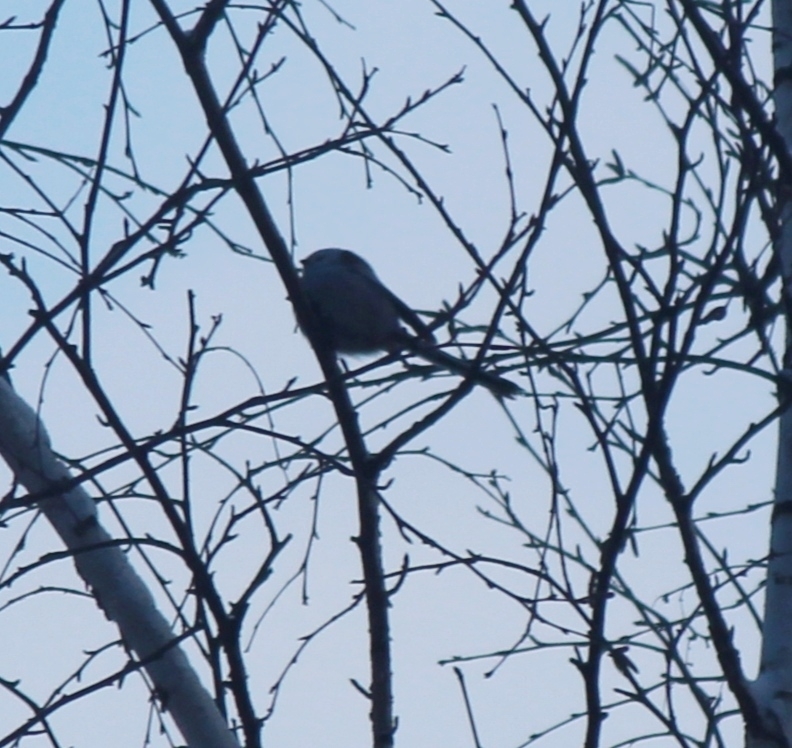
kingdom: Animalia
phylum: Chordata
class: Aves
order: Passeriformes
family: Aegithalidae
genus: Aegithalos
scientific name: Aegithalos caudatus
